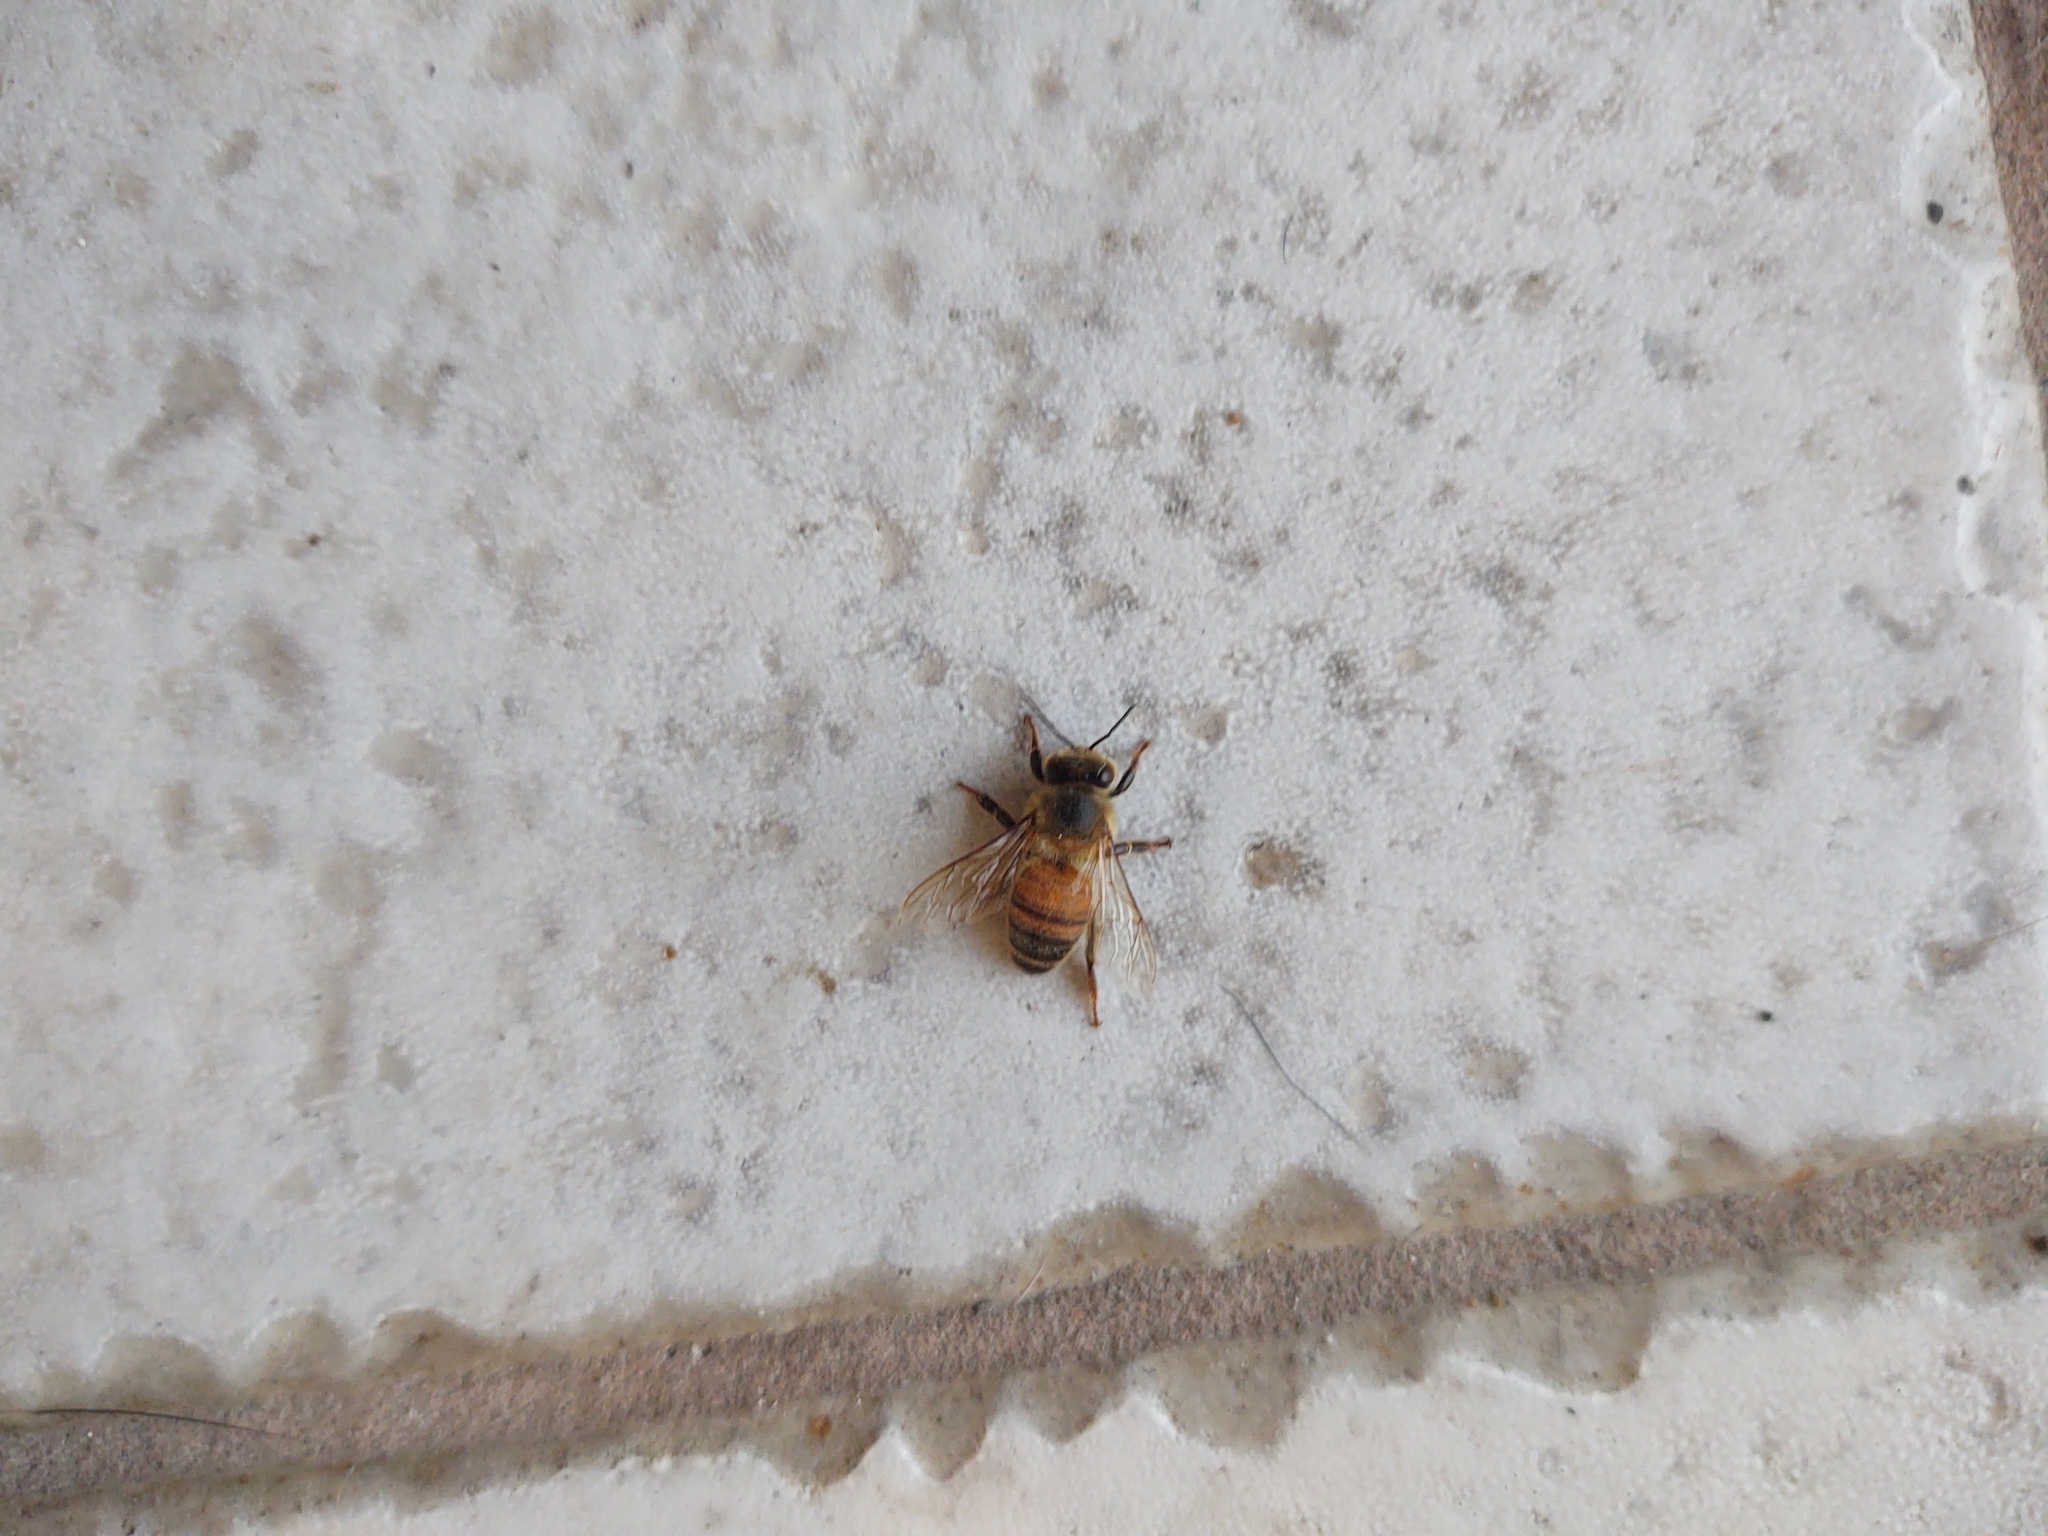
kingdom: Animalia
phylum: Arthropoda
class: Insecta
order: Hymenoptera
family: Apidae
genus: Apis
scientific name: Apis mellifera
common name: Honey bee
